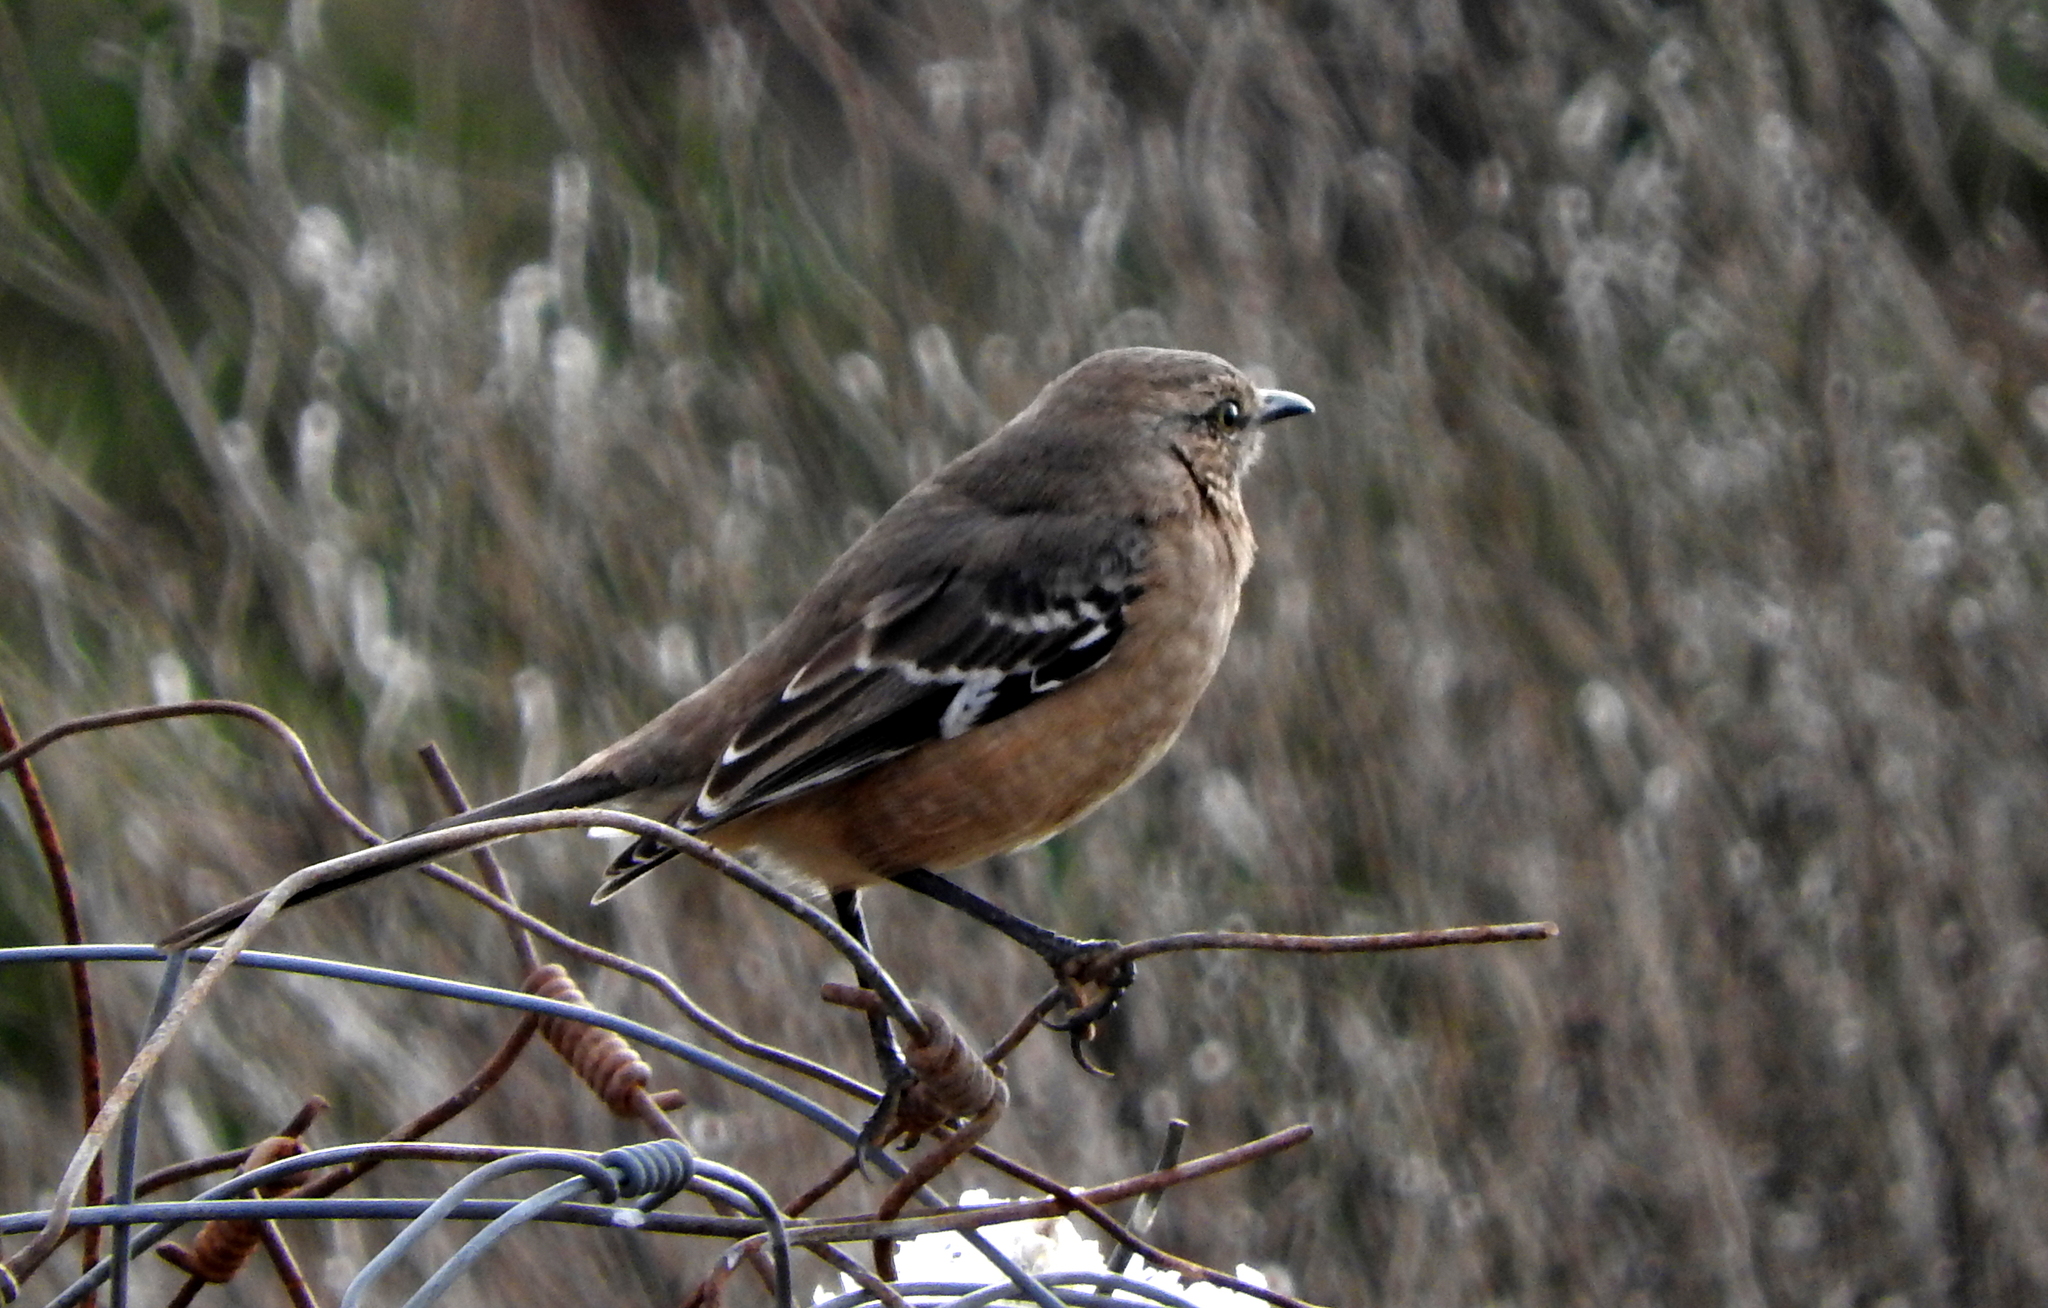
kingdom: Animalia
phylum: Chordata
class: Aves
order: Passeriformes
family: Mimidae
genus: Mimus
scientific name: Mimus patagonicus
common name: Patagonian mockingbird
